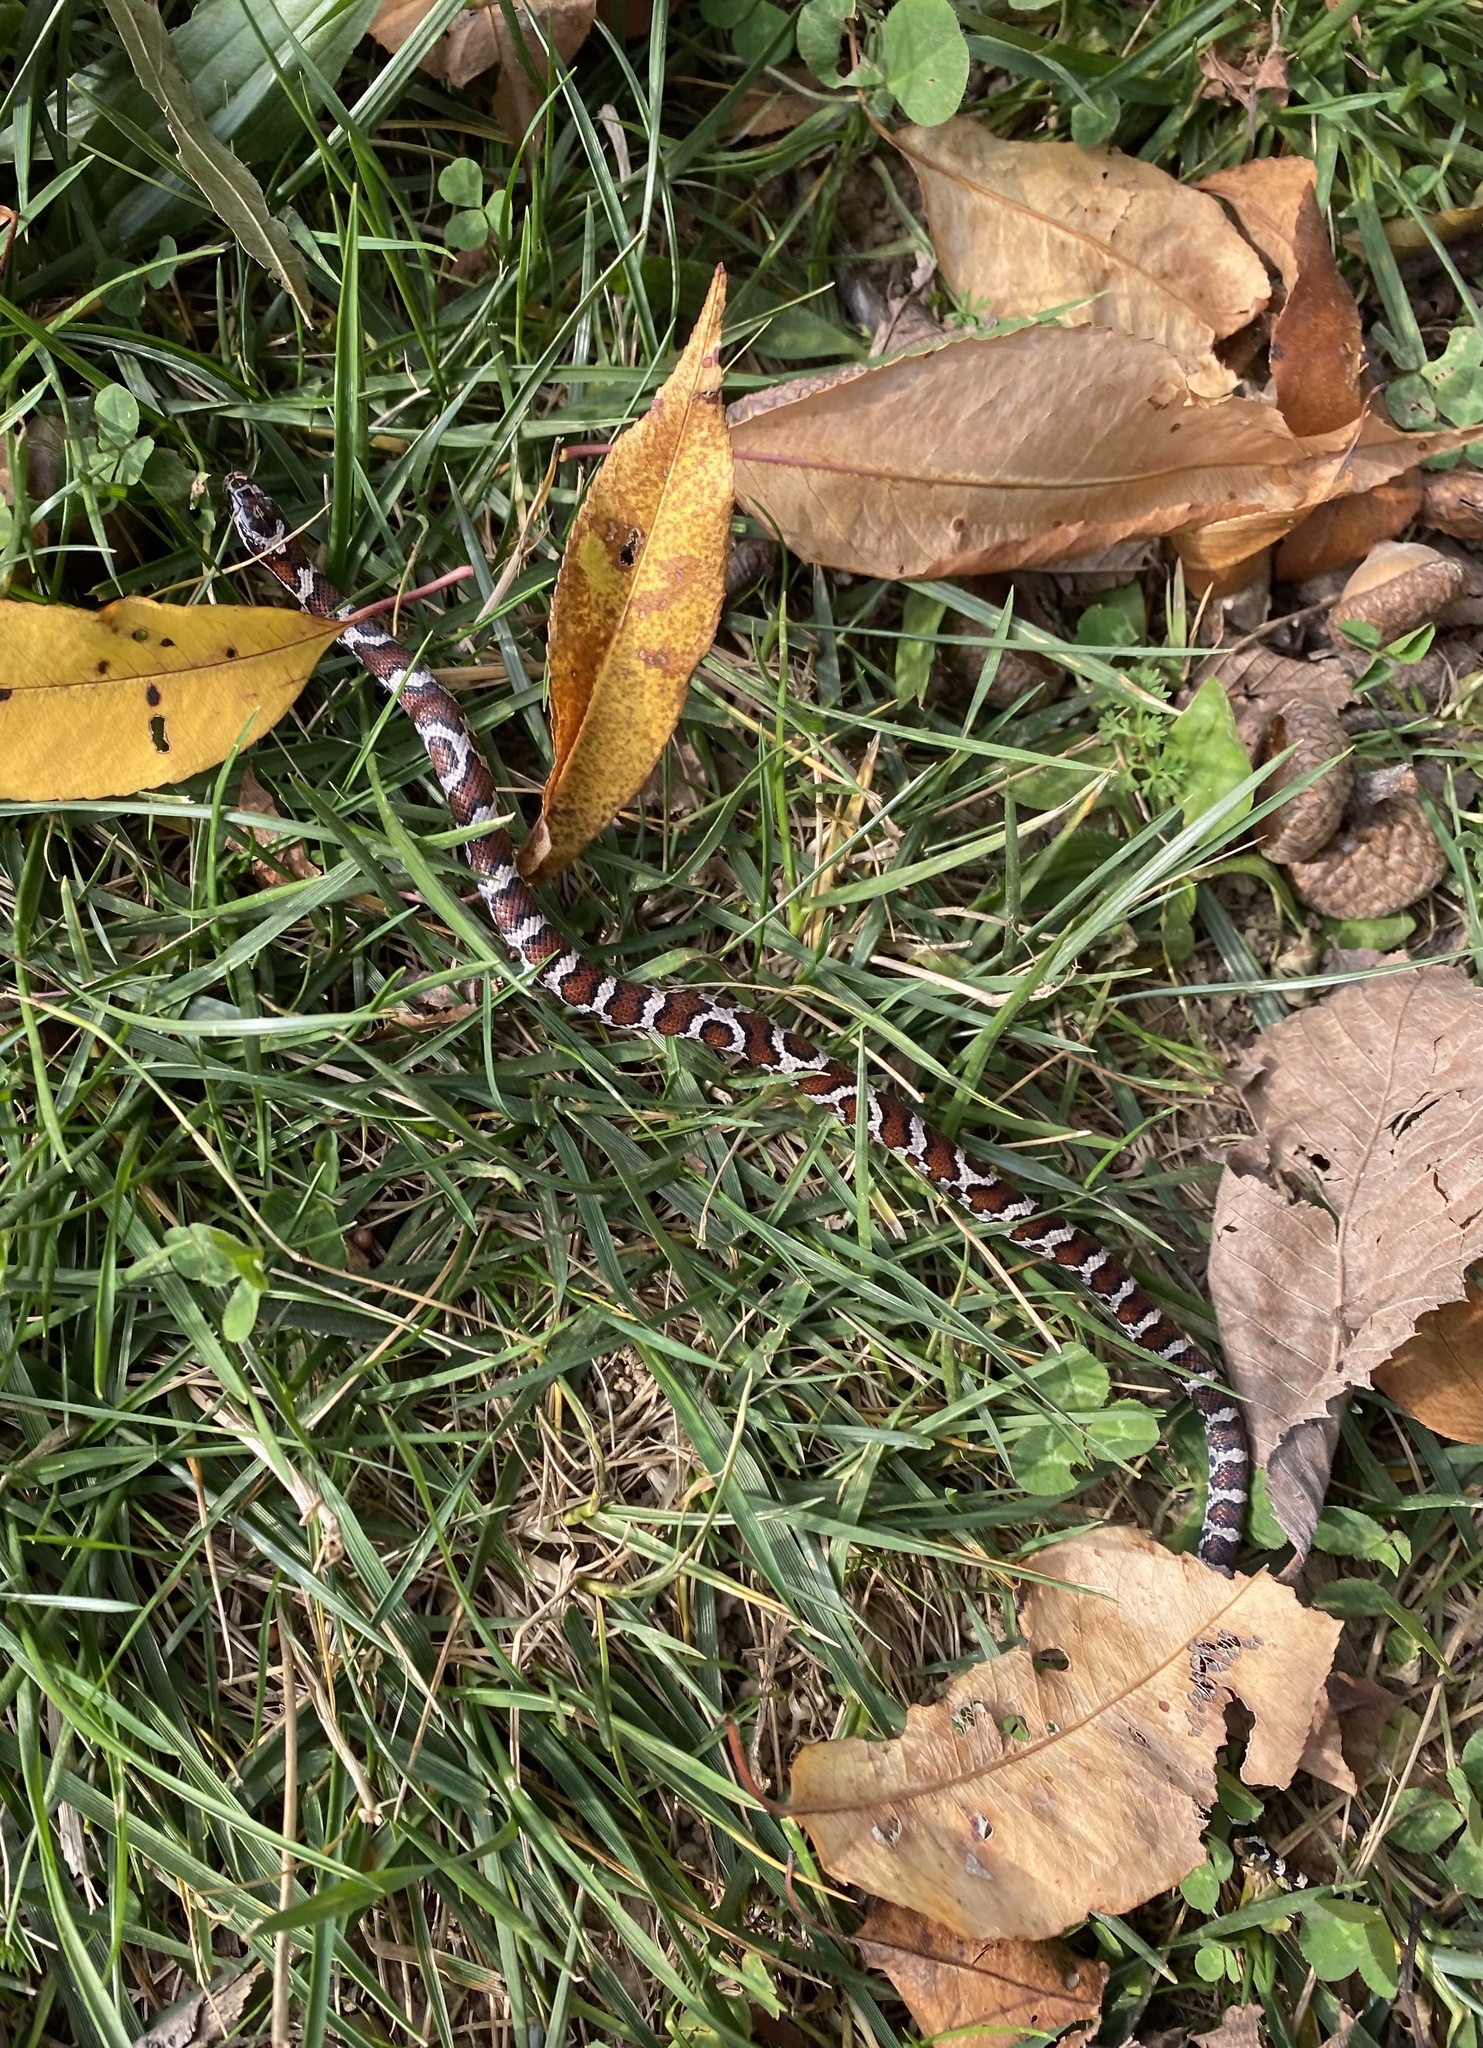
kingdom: Animalia
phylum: Chordata
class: Squamata
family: Colubridae
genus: Lampropeltis
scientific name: Lampropeltis triangulum
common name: Eastern milksnake
